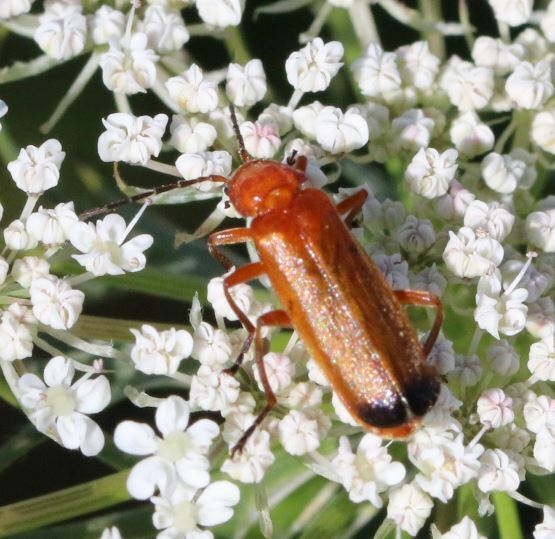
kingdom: Animalia
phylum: Arthropoda
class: Insecta
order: Coleoptera
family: Cantharidae
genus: Rhagonycha
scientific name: Rhagonycha fulva
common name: Common red soldier beetle
